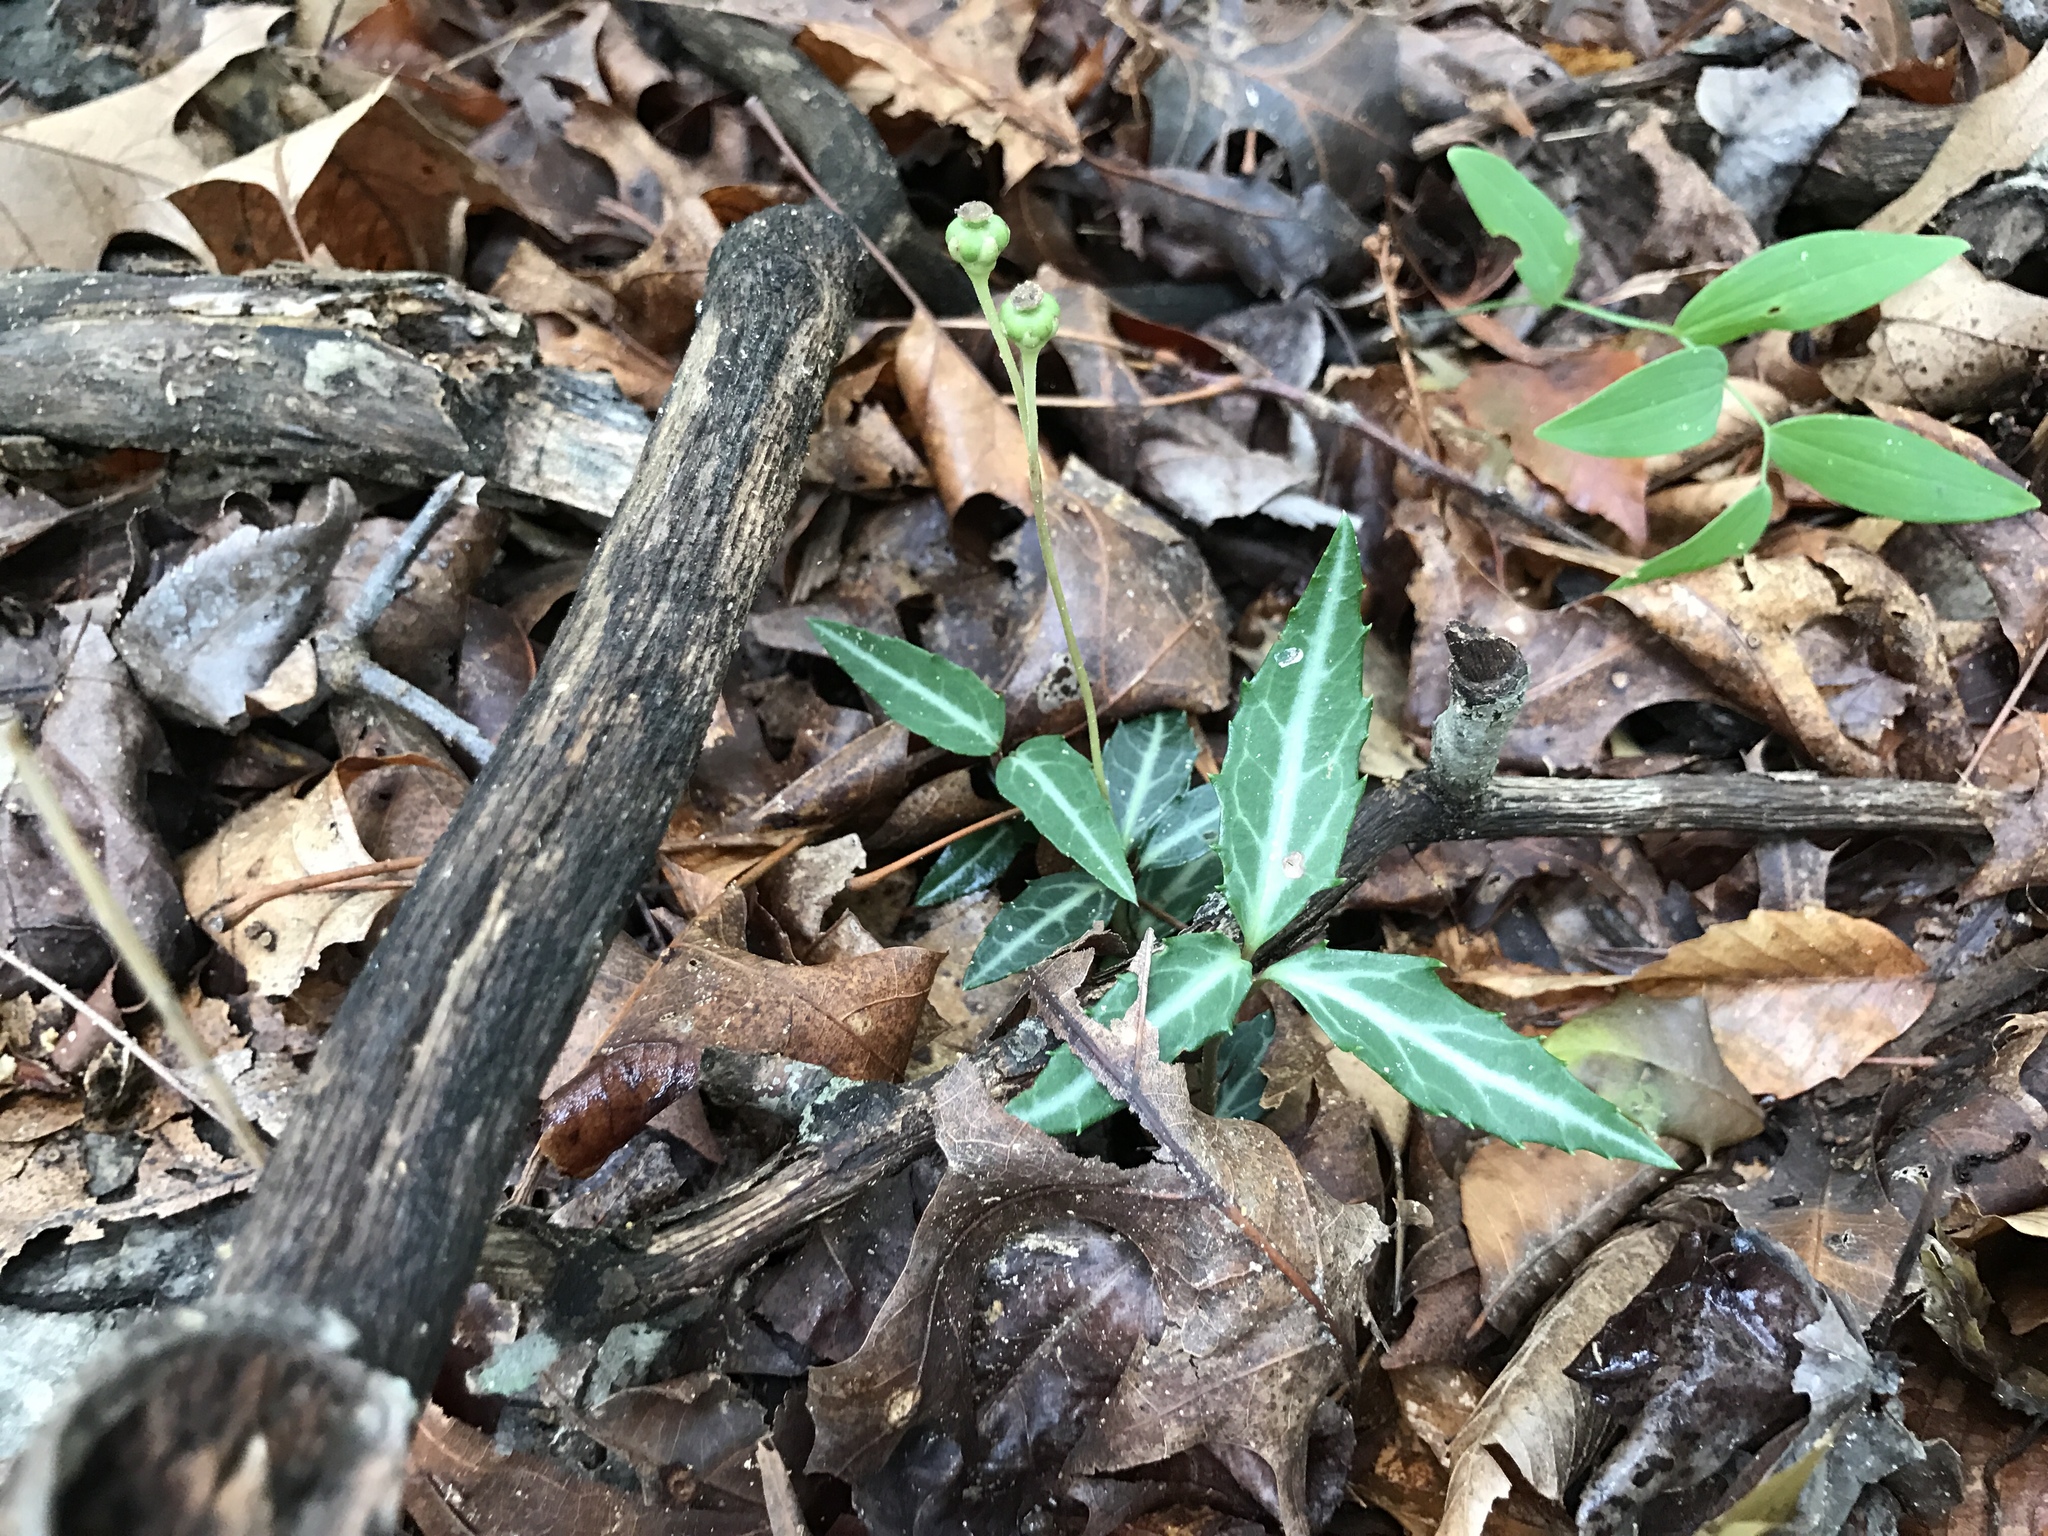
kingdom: Plantae
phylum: Tracheophyta
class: Magnoliopsida
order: Ericales
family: Ericaceae
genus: Chimaphila
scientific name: Chimaphila maculata
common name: Spotted pipsissewa
